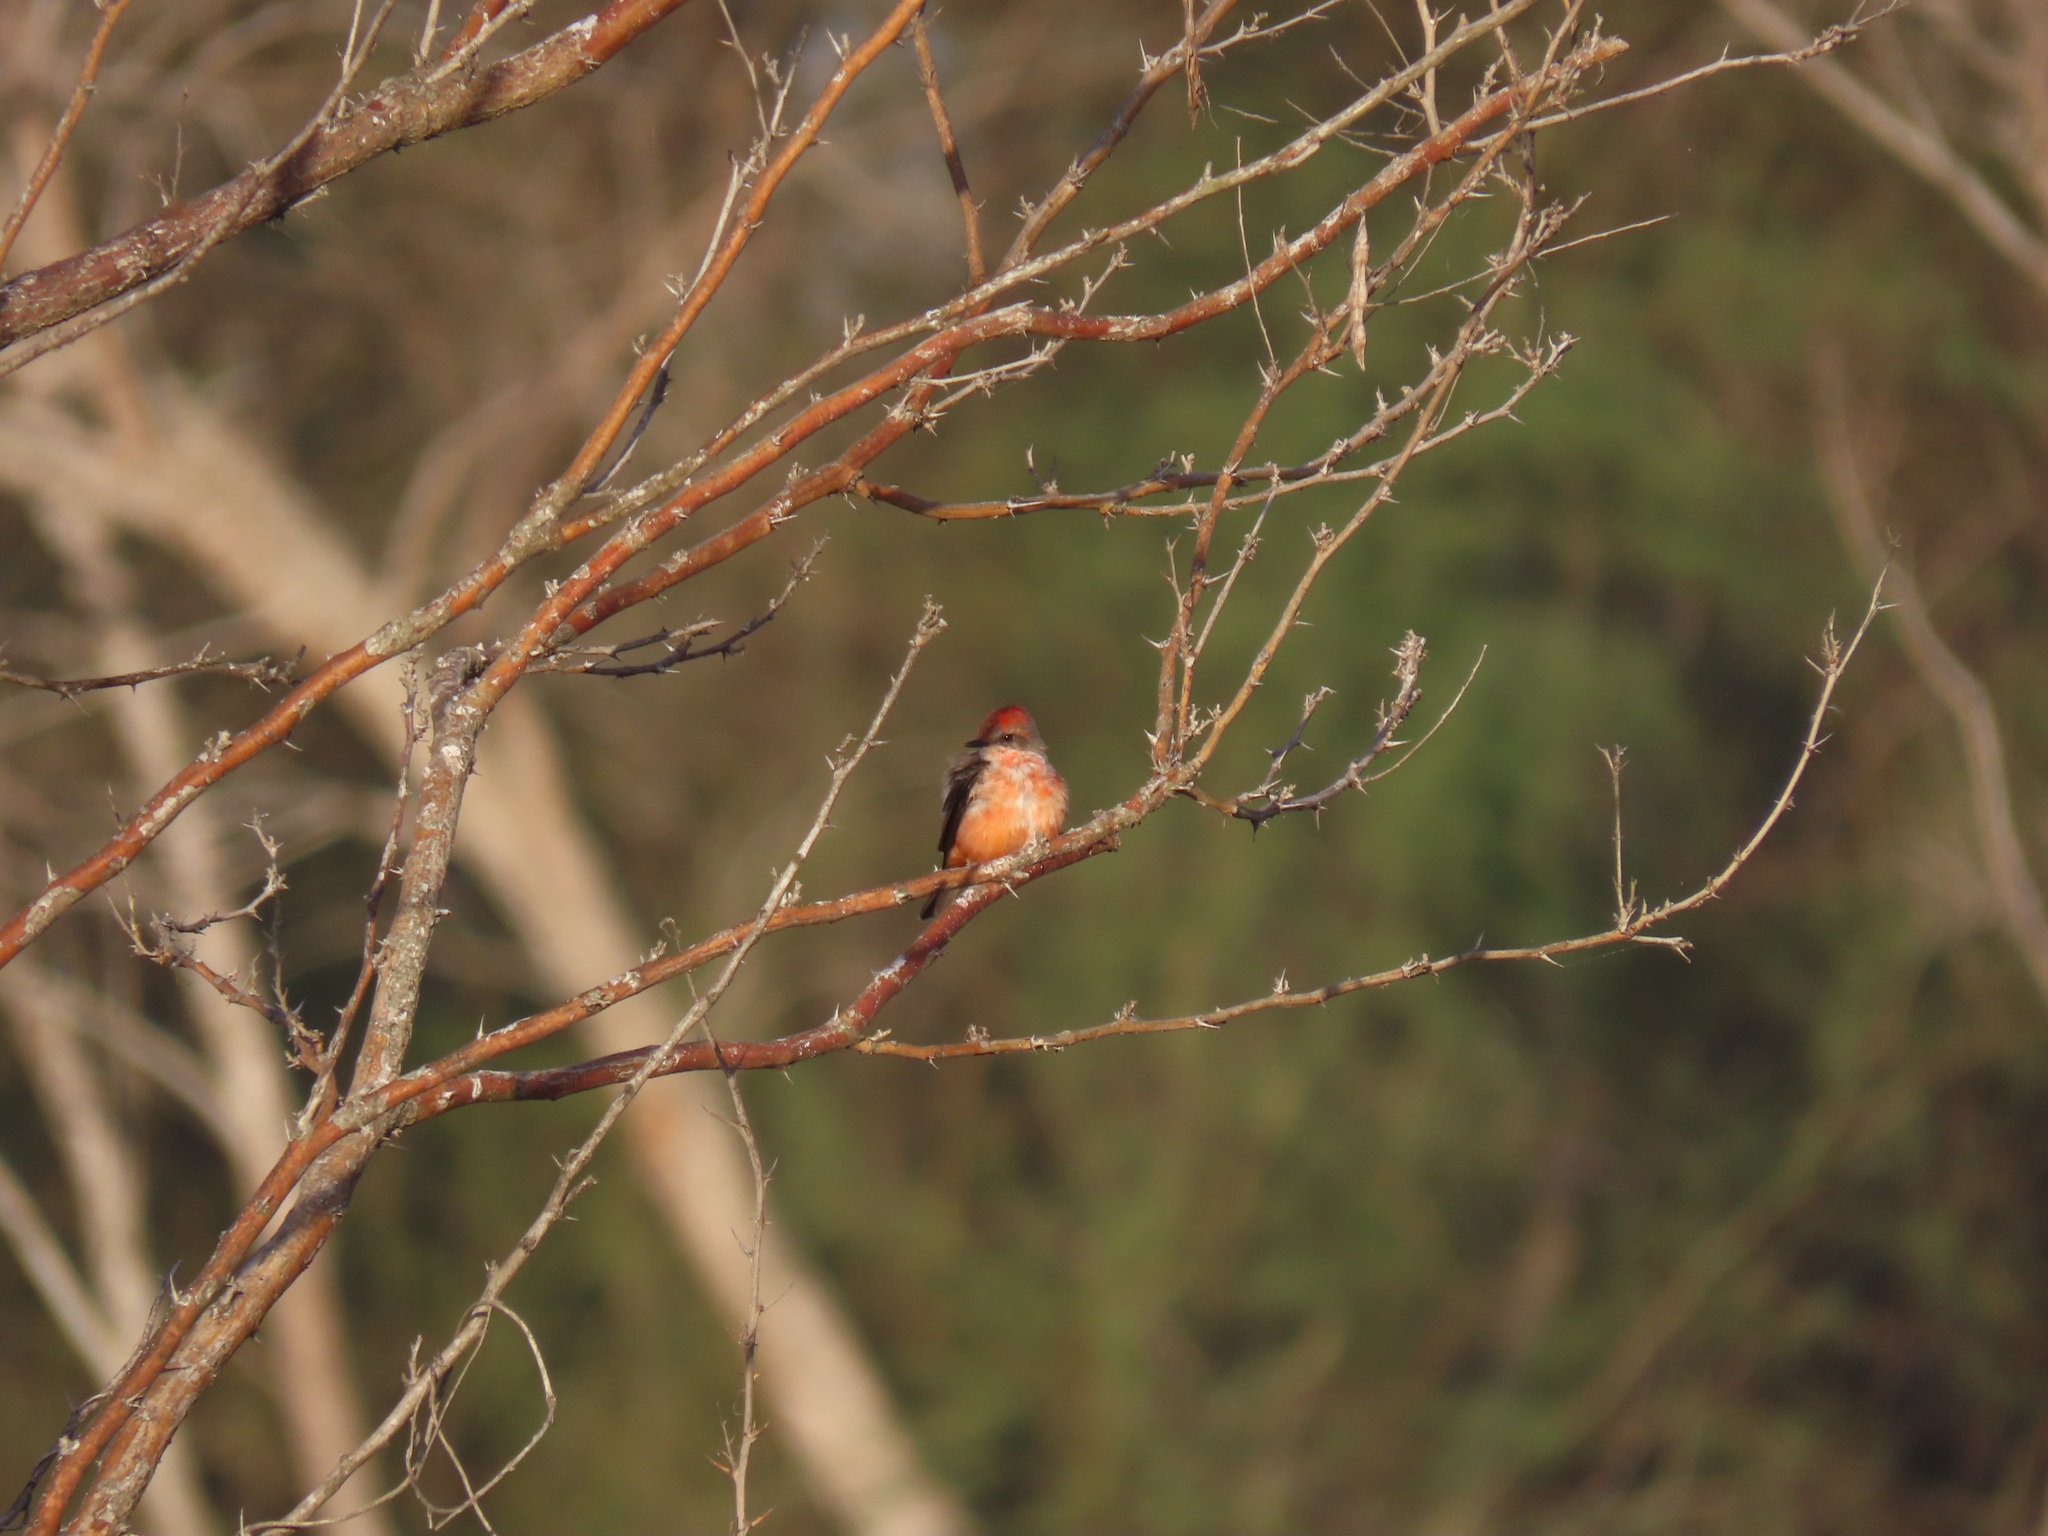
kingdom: Animalia
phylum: Chordata
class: Aves
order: Passeriformes
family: Tyrannidae
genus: Pyrocephalus
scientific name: Pyrocephalus rubinus
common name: Vermilion flycatcher
